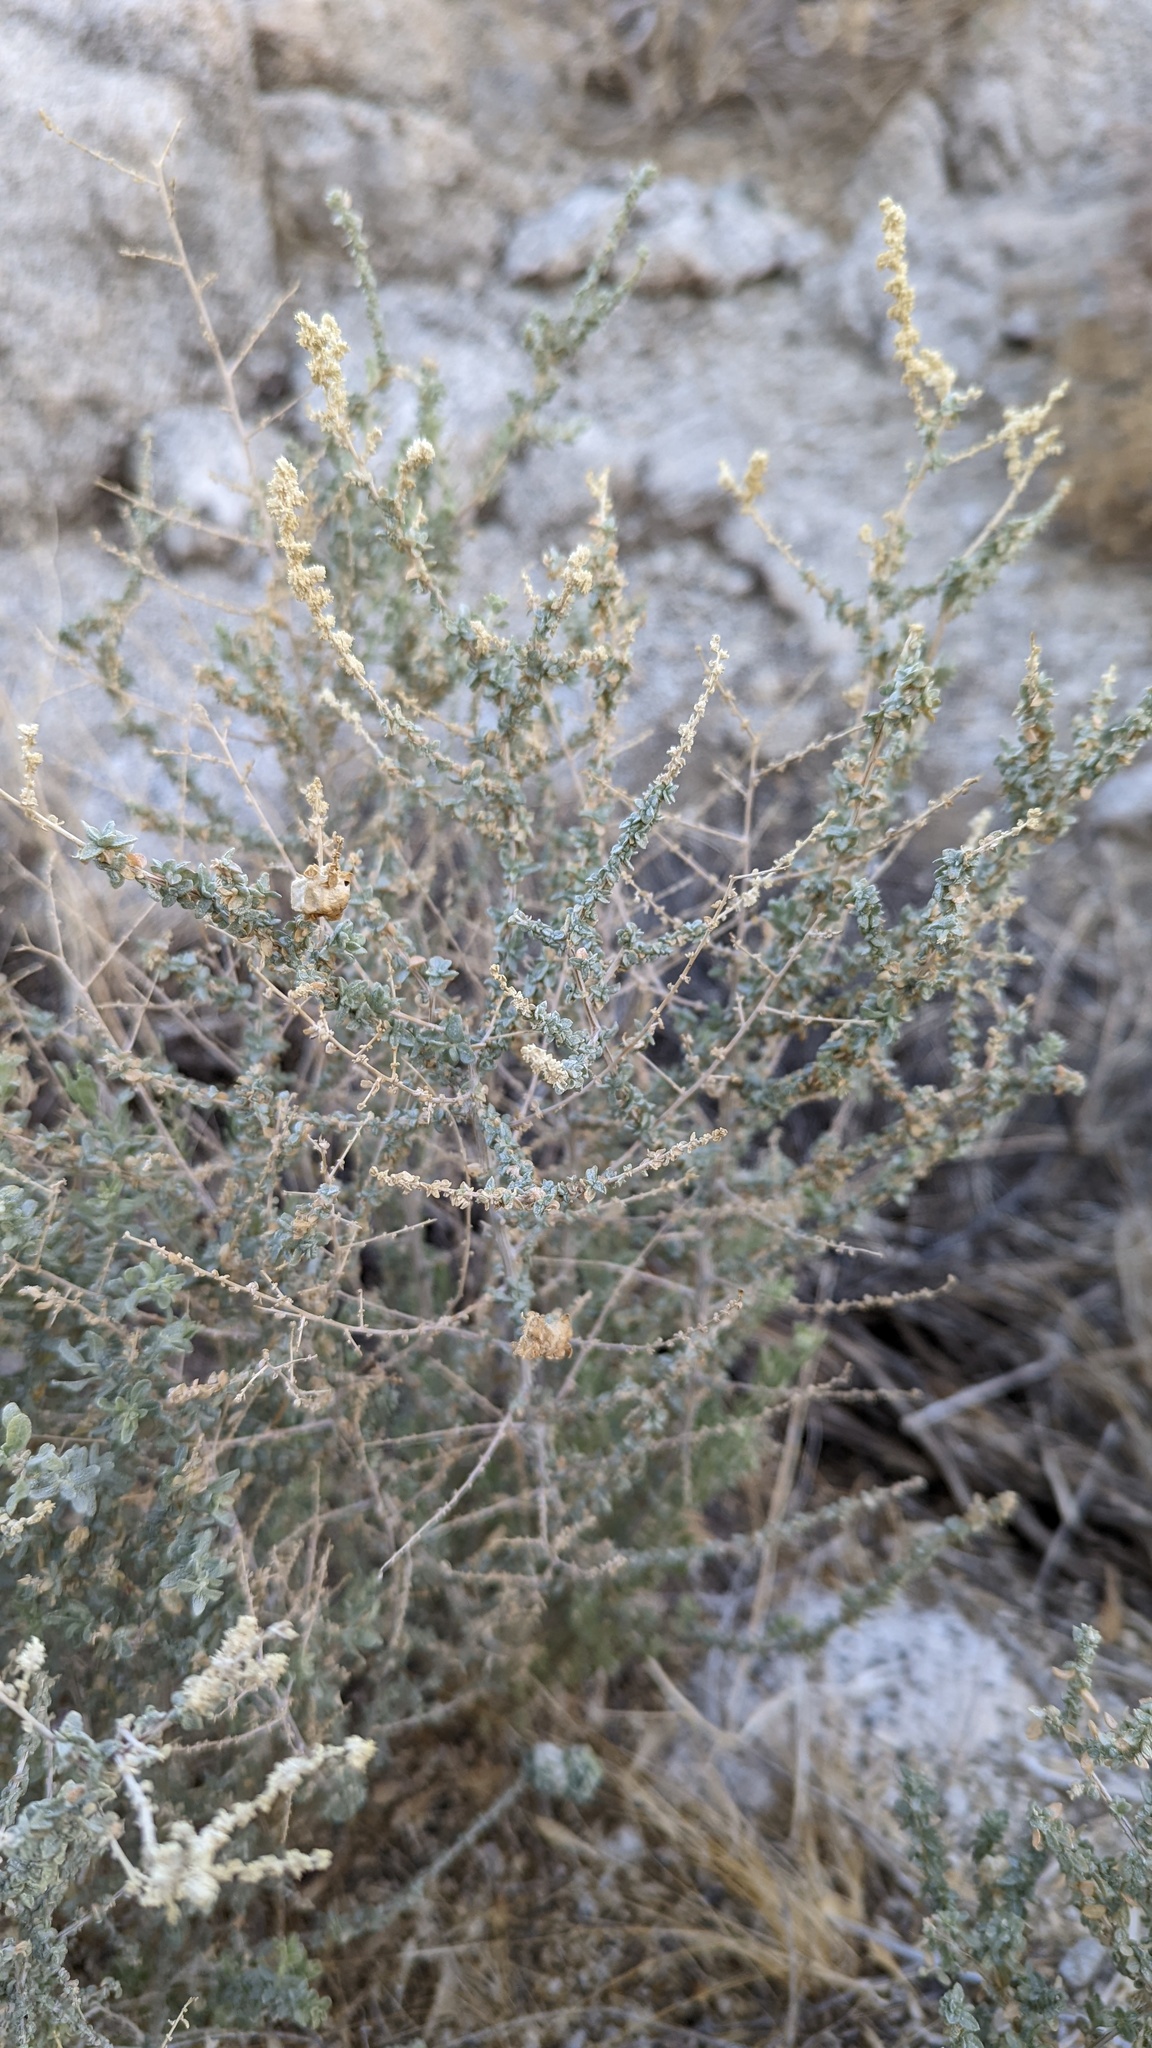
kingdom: Plantae
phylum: Tracheophyta
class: Magnoliopsida
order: Caryophyllales
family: Amaranthaceae
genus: Atriplex
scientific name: Atriplex polycarpa
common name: Desert saltbush
